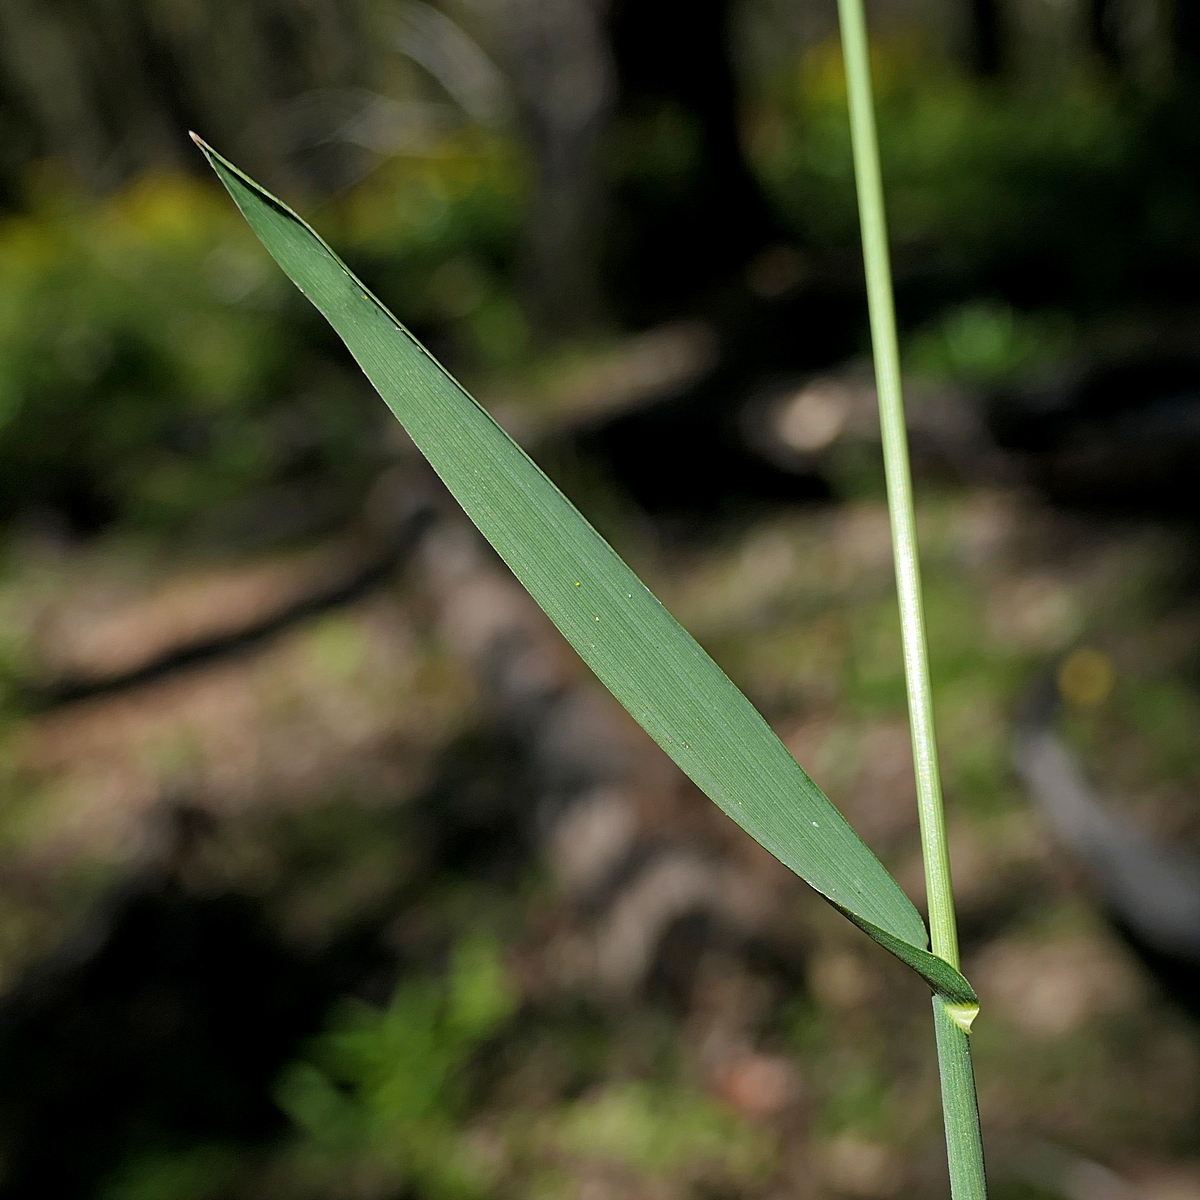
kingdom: Plantae
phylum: Tracheophyta
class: Liliopsida
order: Poales
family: Poaceae
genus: Echinopogon
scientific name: Echinopogon caespitosus
